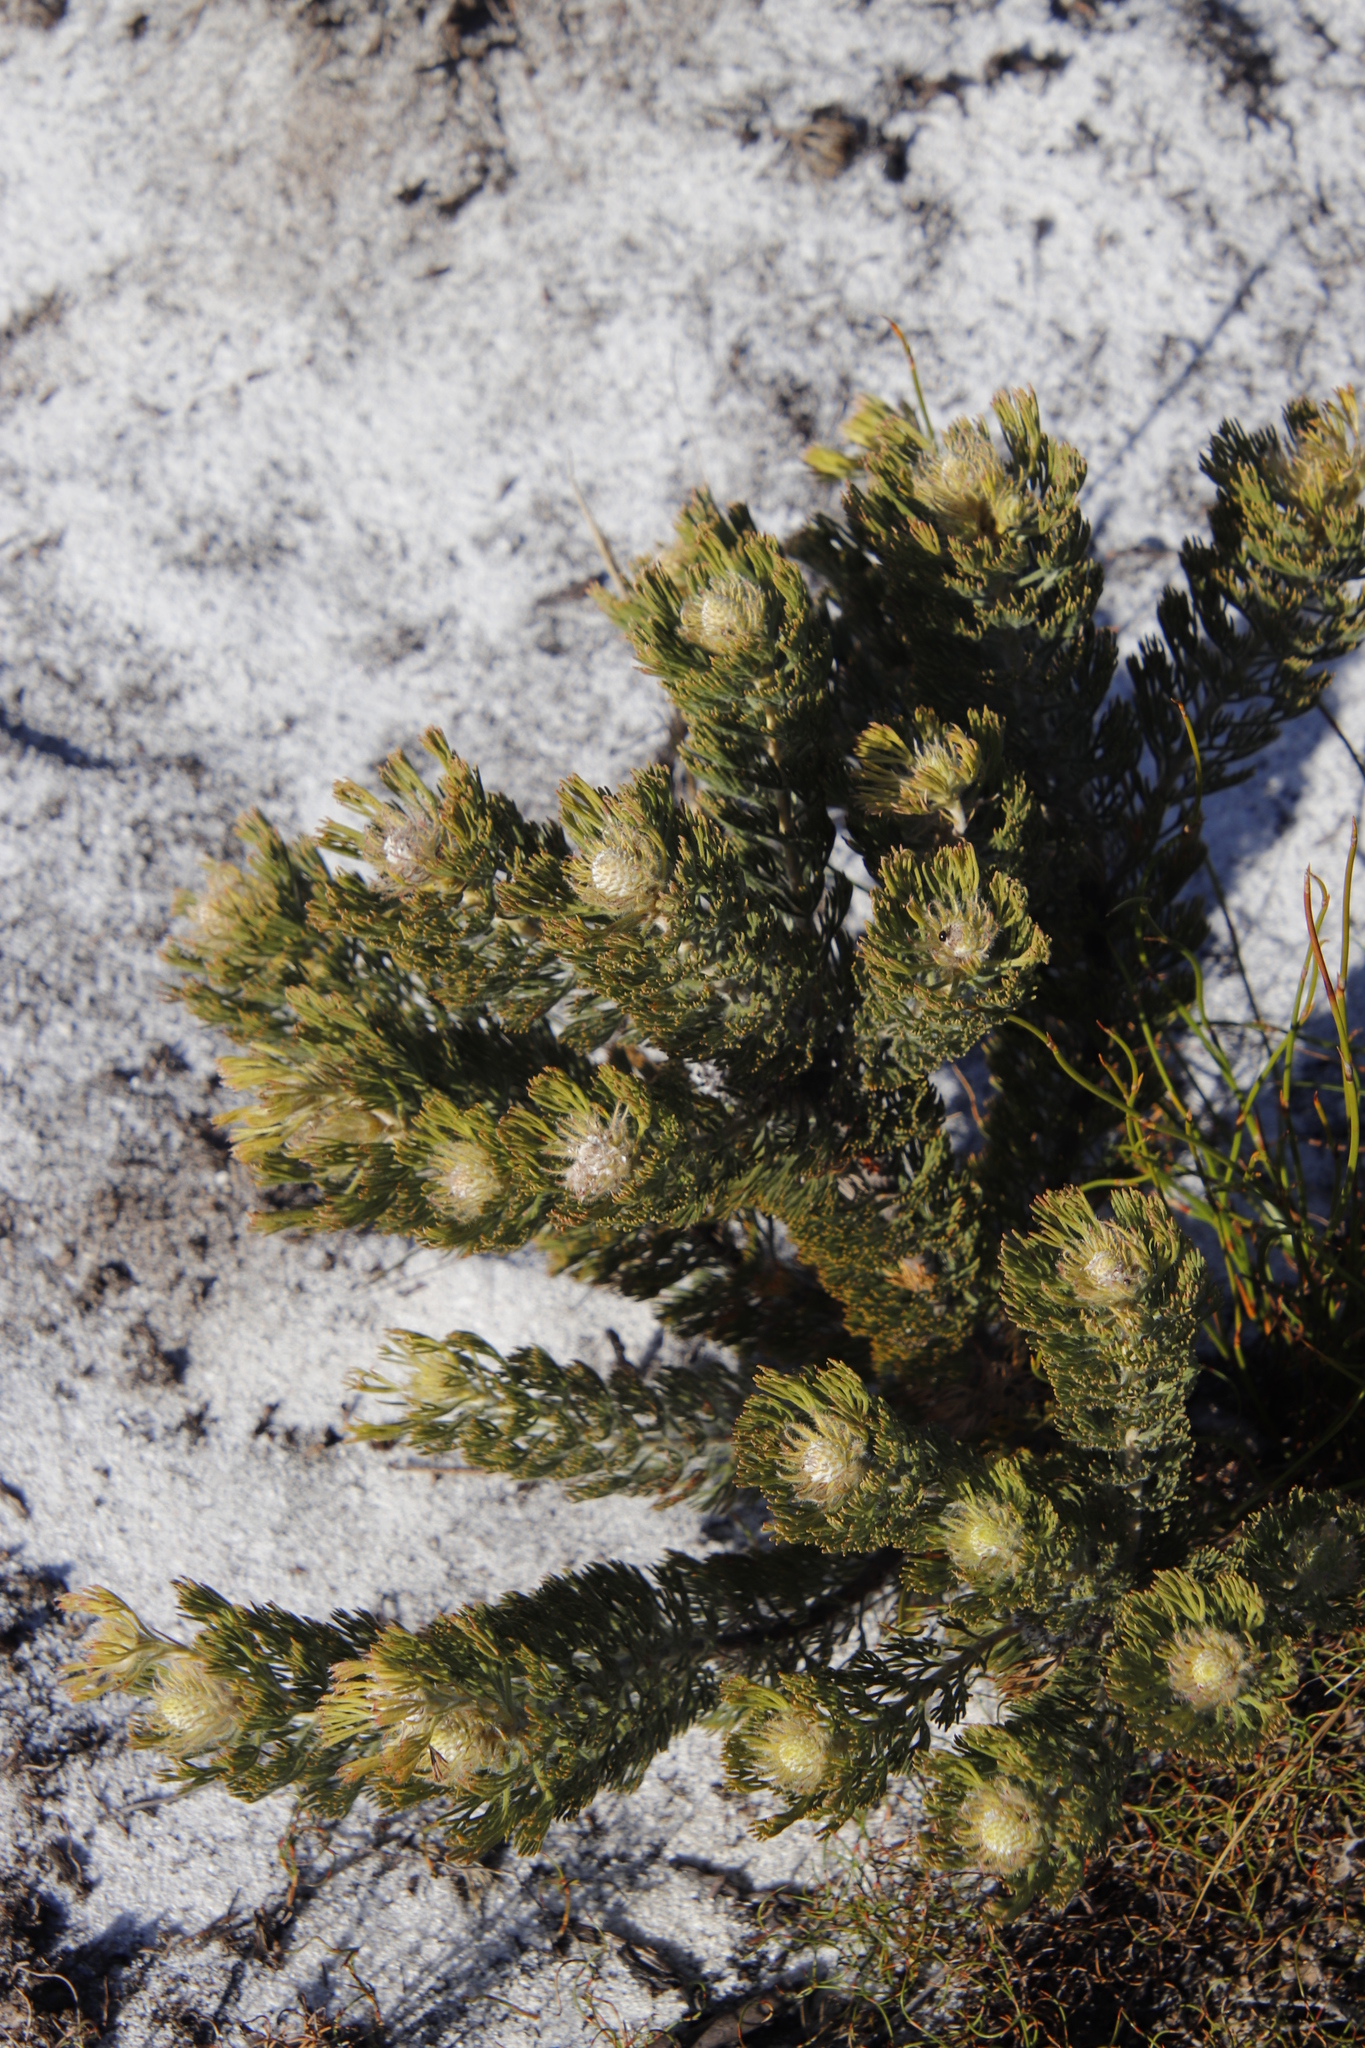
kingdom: Plantae
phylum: Tracheophyta
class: Magnoliopsida
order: Proteales
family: Proteaceae
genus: Serruria
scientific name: Serruria villosa
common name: Golden spiderhead
